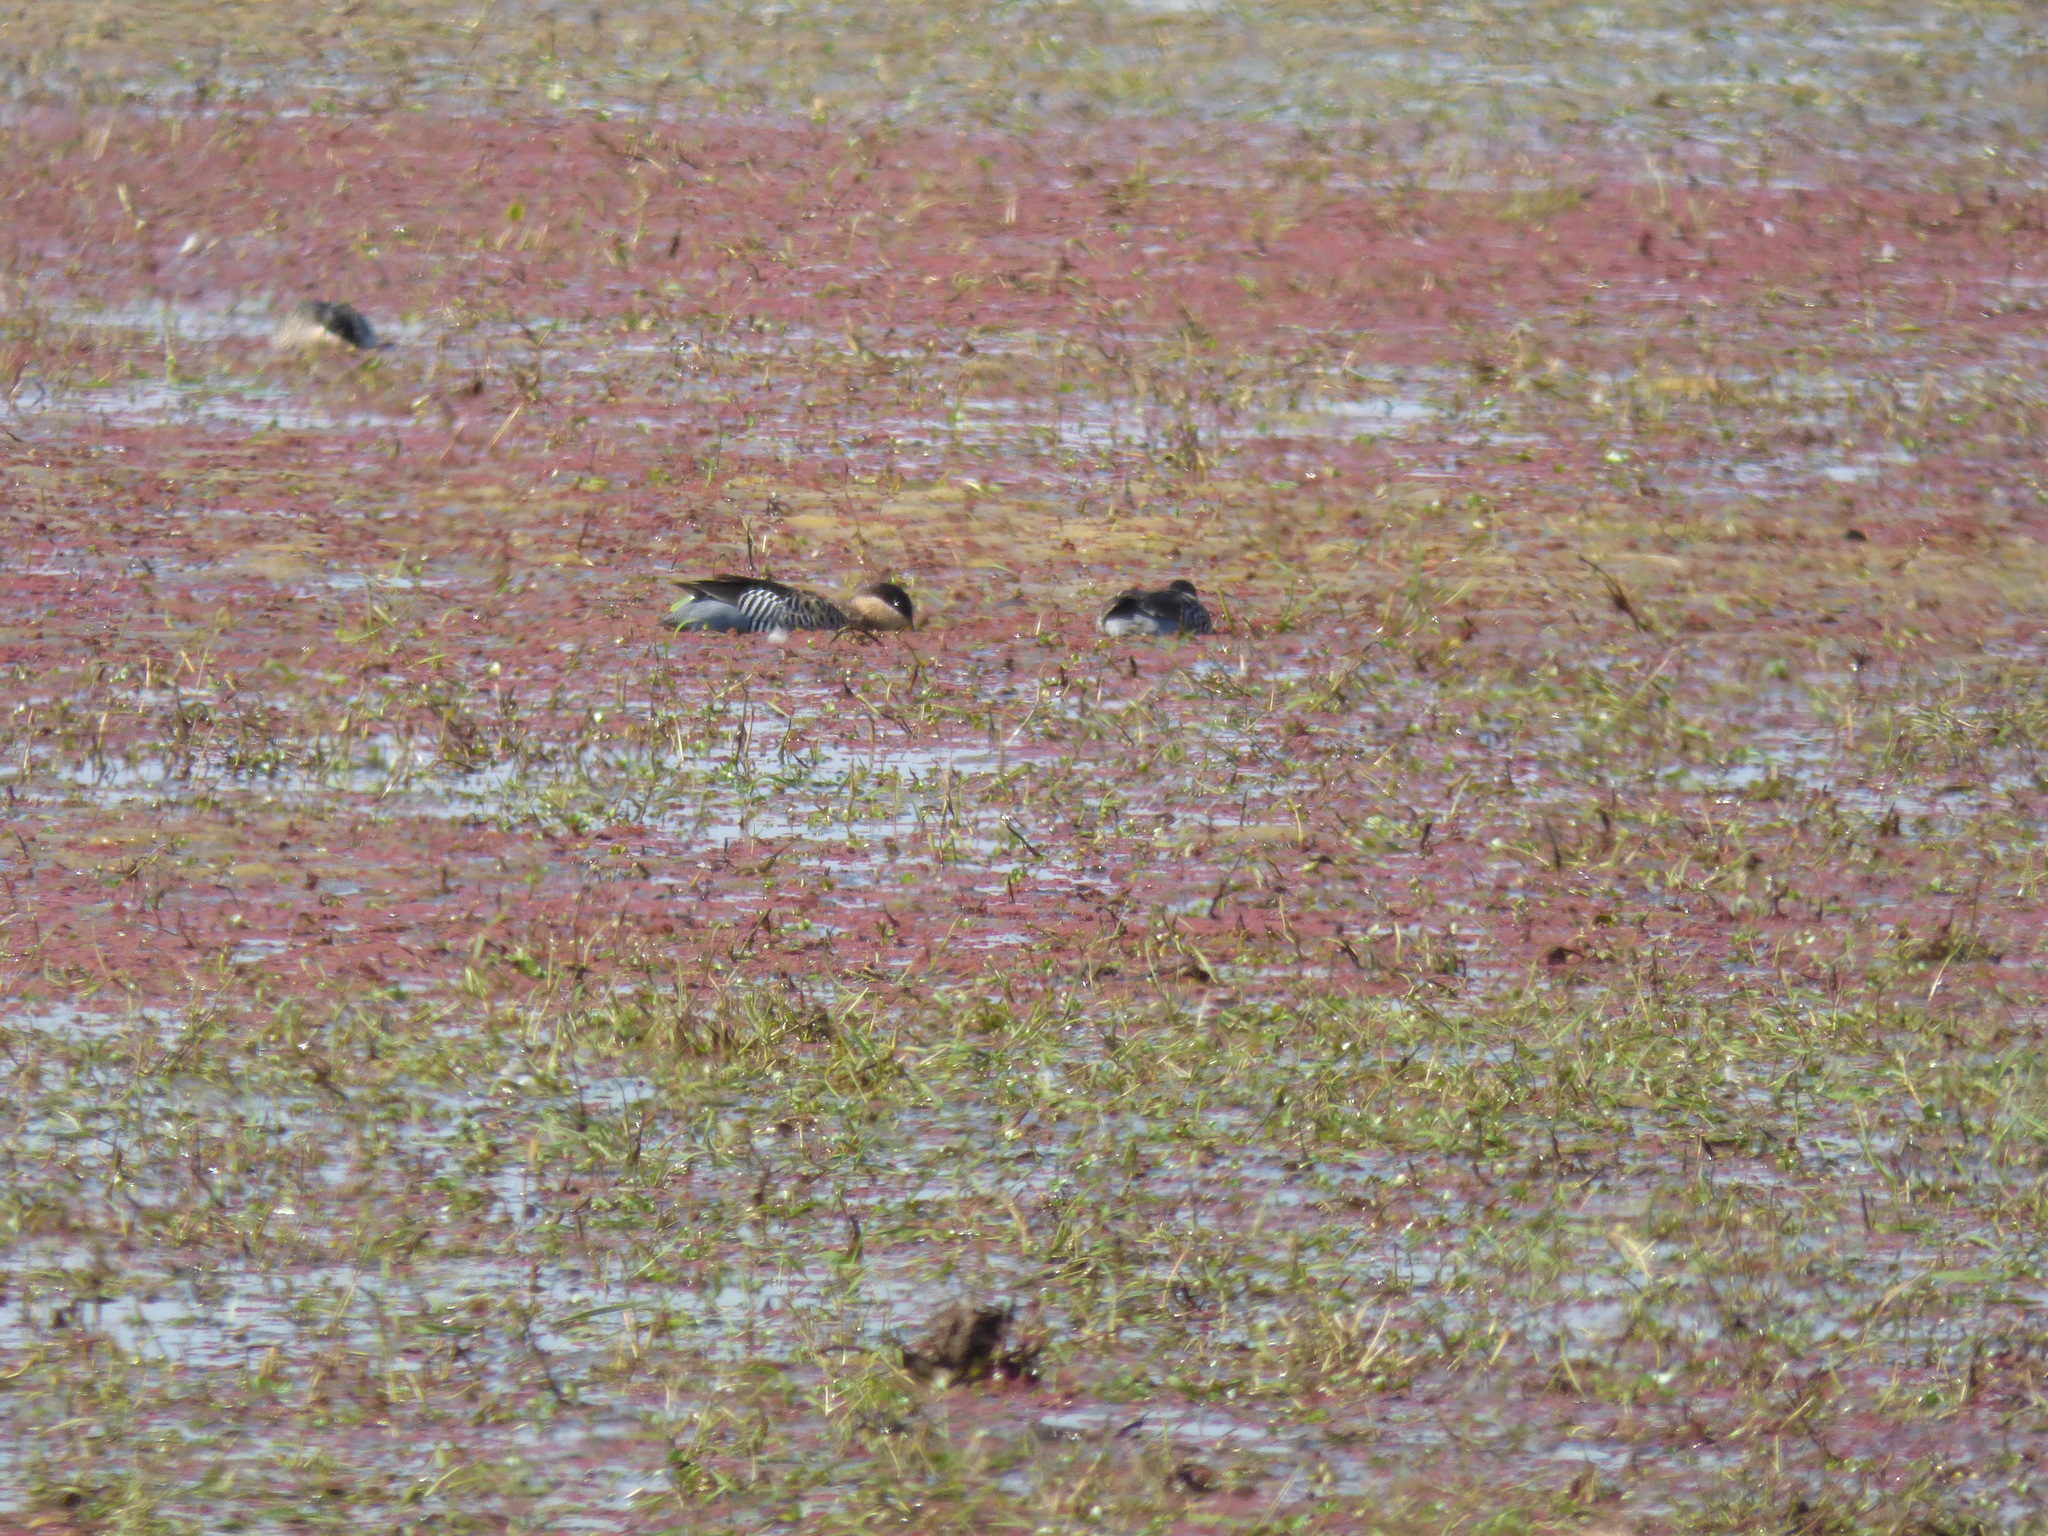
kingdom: Animalia
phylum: Chordata
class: Aves
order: Anseriformes
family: Anatidae
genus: Spatula
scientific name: Spatula versicolor
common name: Silver teal
